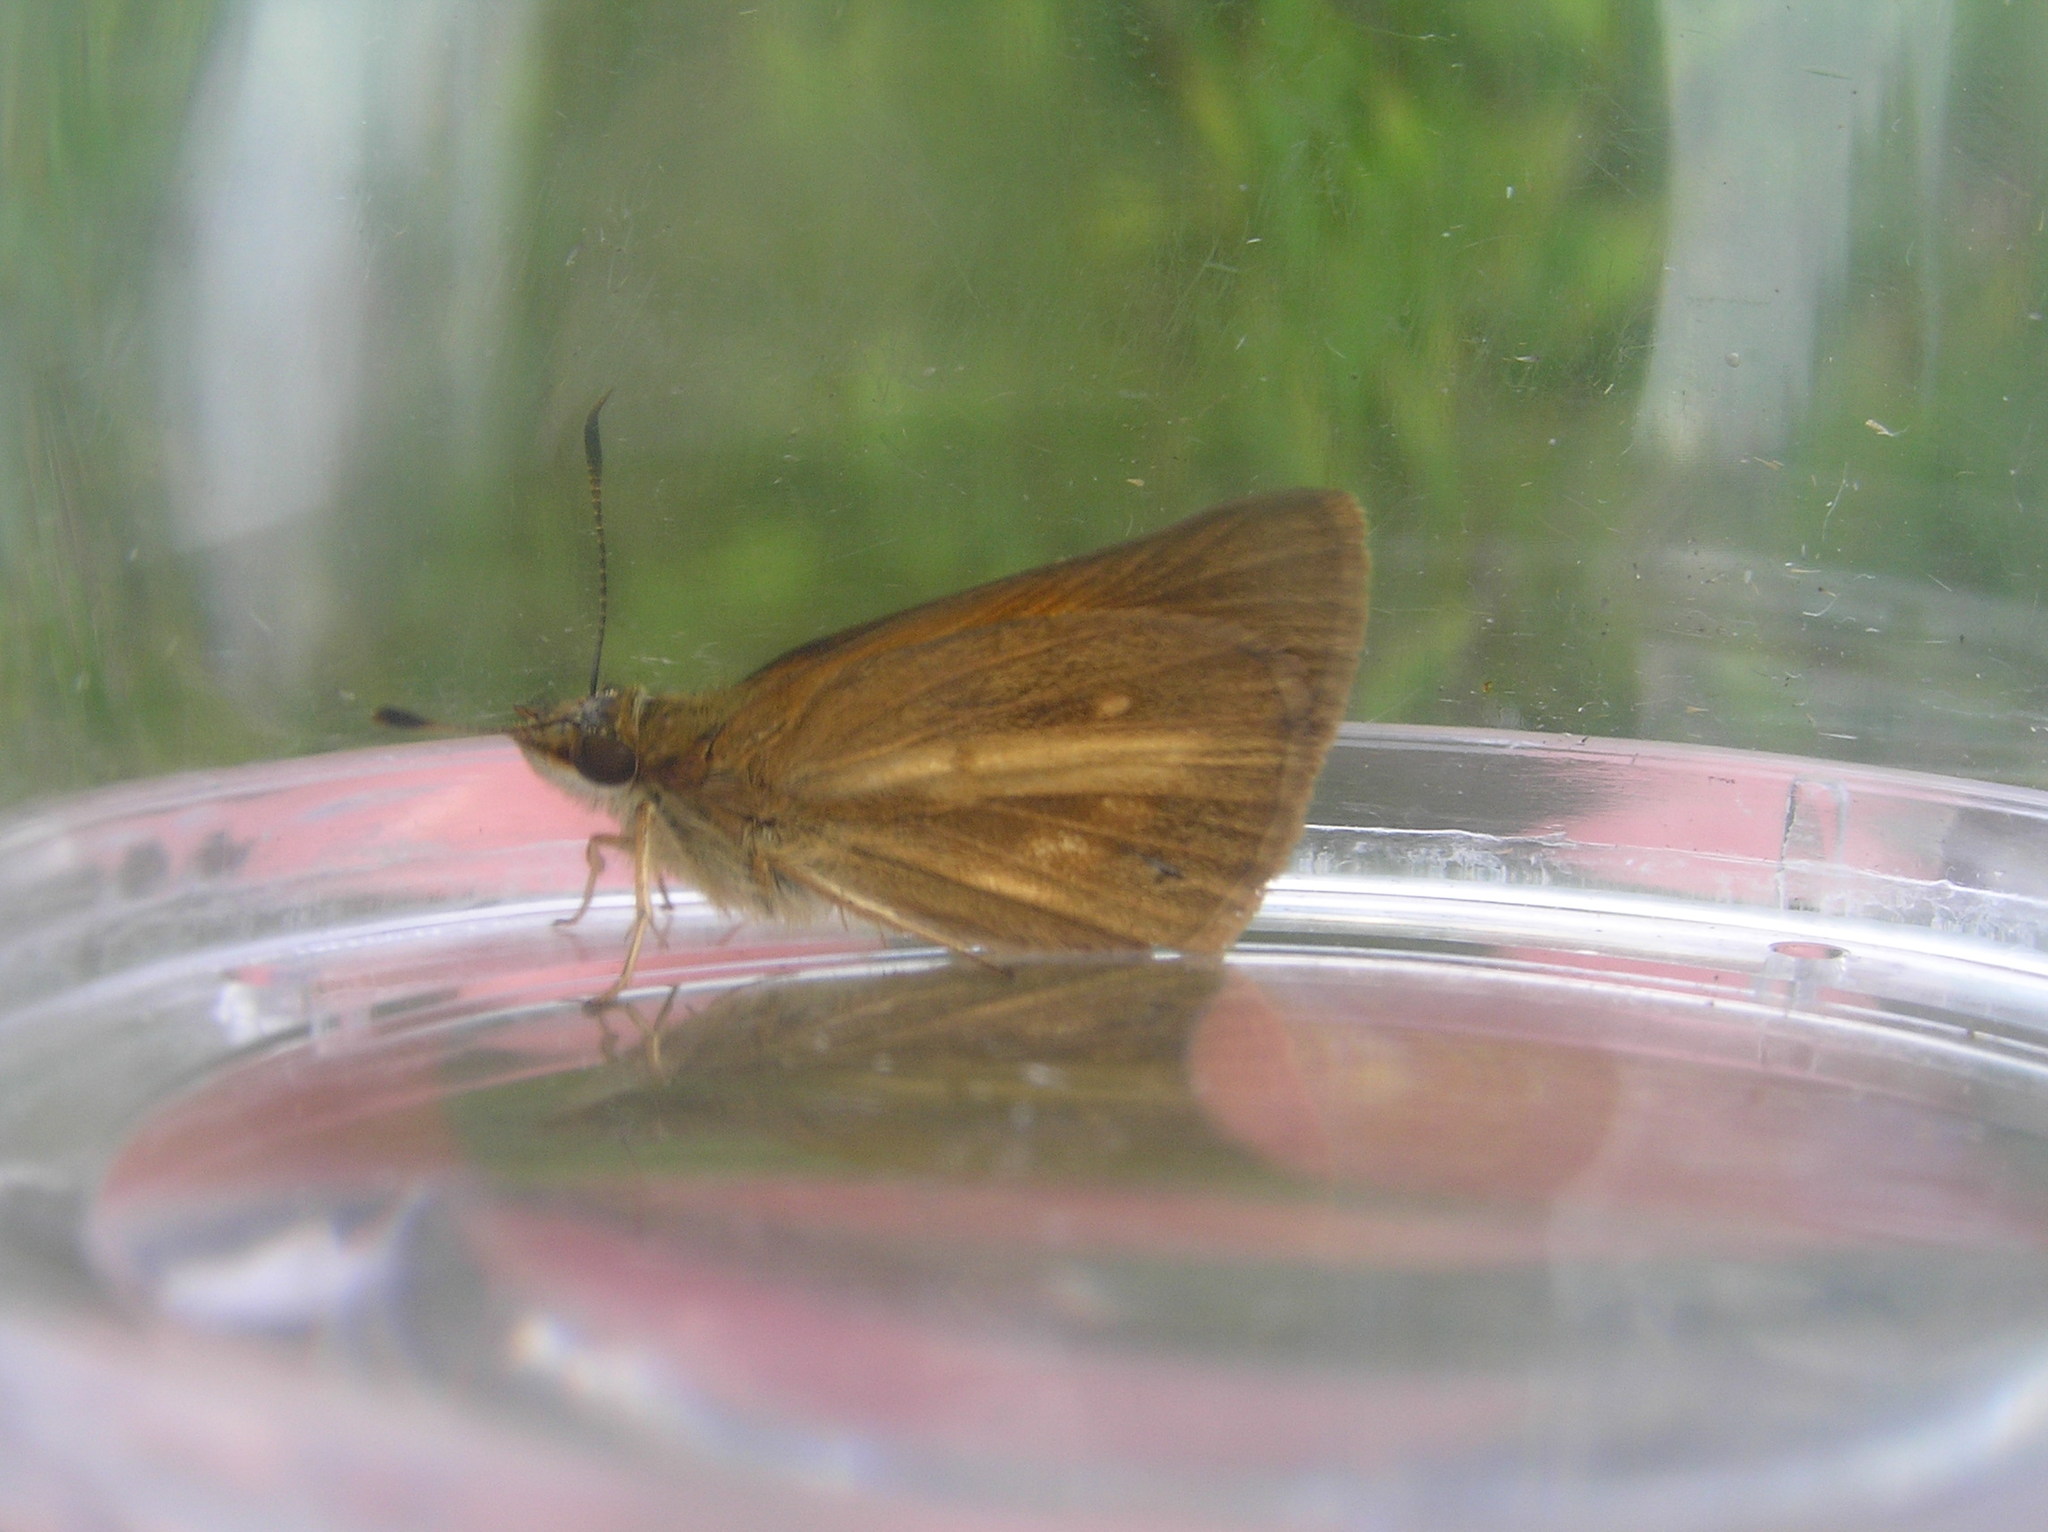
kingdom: Animalia
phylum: Arthropoda
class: Insecta
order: Lepidoptera
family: Hesperiidae
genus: Poanes
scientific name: Poanes viator
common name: Broad-winged skipper
